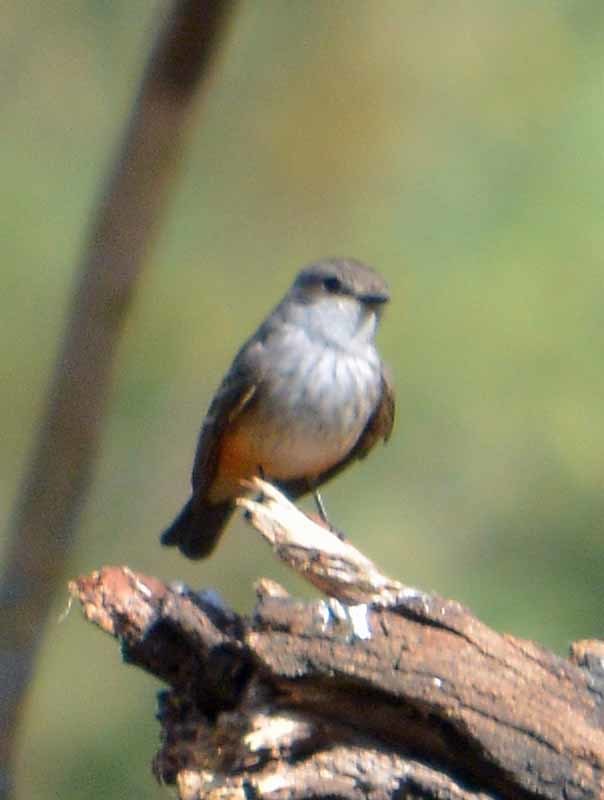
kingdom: Animalia
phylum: Chordata
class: Aves
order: Passeriformes
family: Tyrannidae
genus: Pyrocephalus
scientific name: Pyrocephalus rubinus
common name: Vermilion flycatcher
